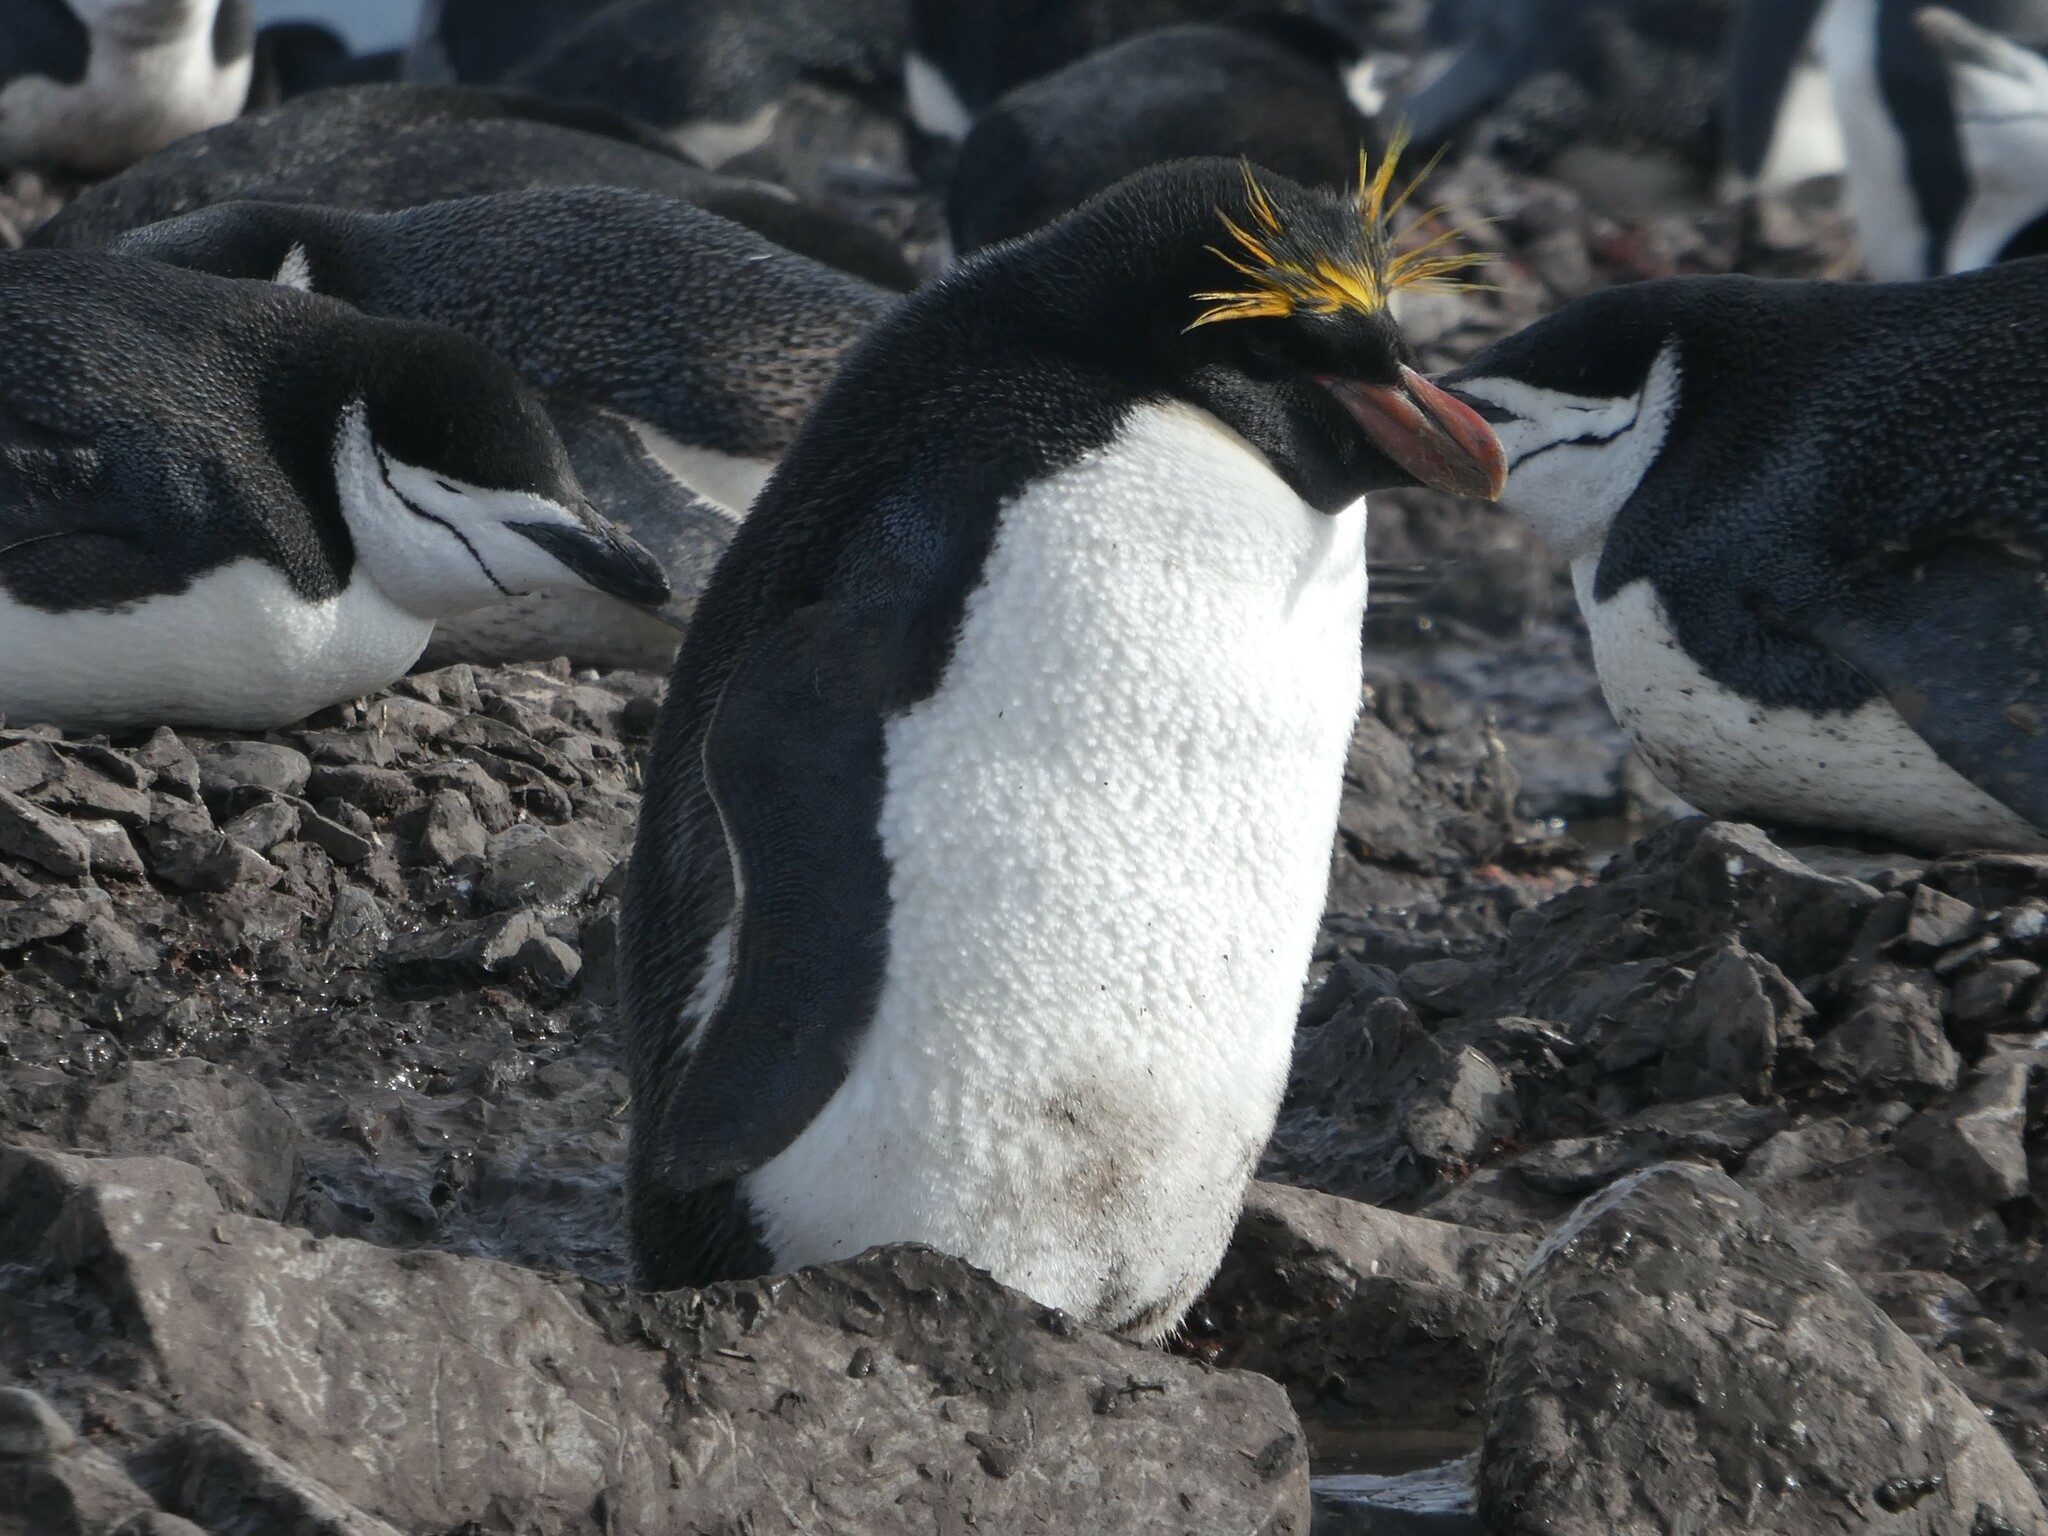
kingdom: Animalia
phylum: Chordata
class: Aves
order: Sphenisciformes
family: Spheniscidae
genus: Eudyptes
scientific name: Eudyptes chrysolophus
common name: Macaroni penguin
